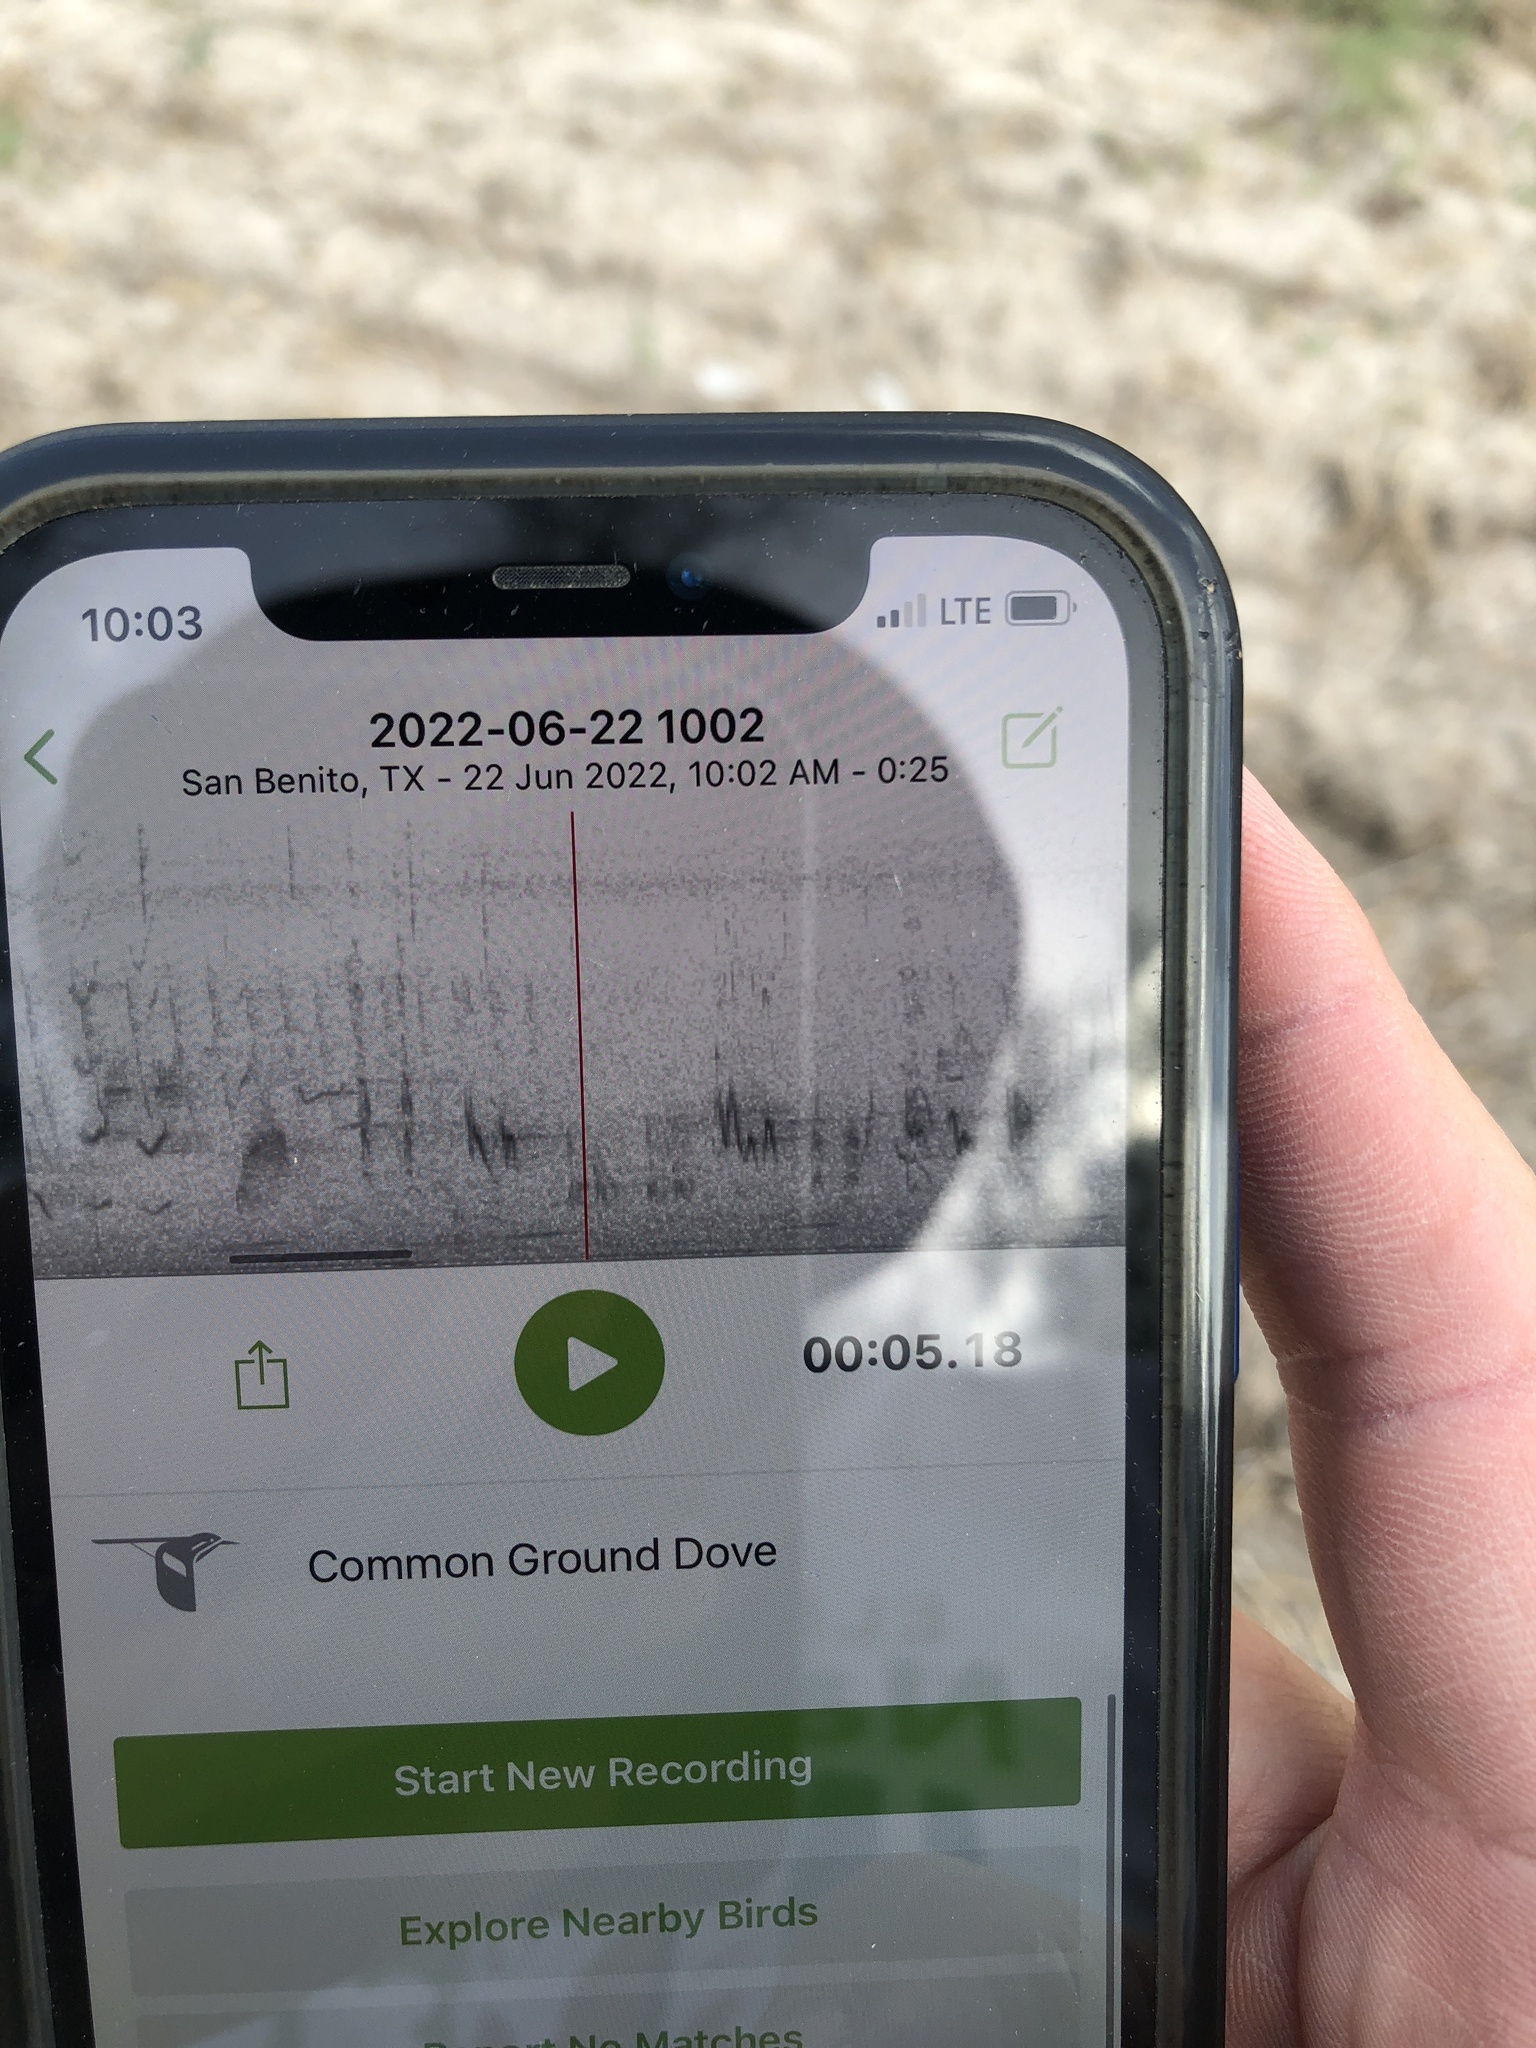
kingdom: Animalia
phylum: Chordata
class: Aves
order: Columbiformes
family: Columbidae
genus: Columbina
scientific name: Columbina passerina
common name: Common ground-dove
